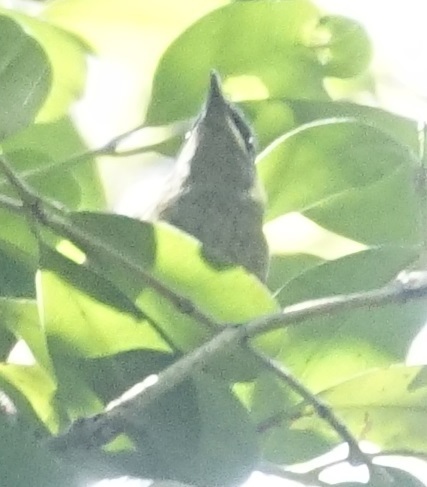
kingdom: Animalia
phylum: Chordata
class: Aves
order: Passeriformes
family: Meliphagidae
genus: Meliphaga
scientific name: Meliphaga lewinii
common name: Lewin's honeyeater
